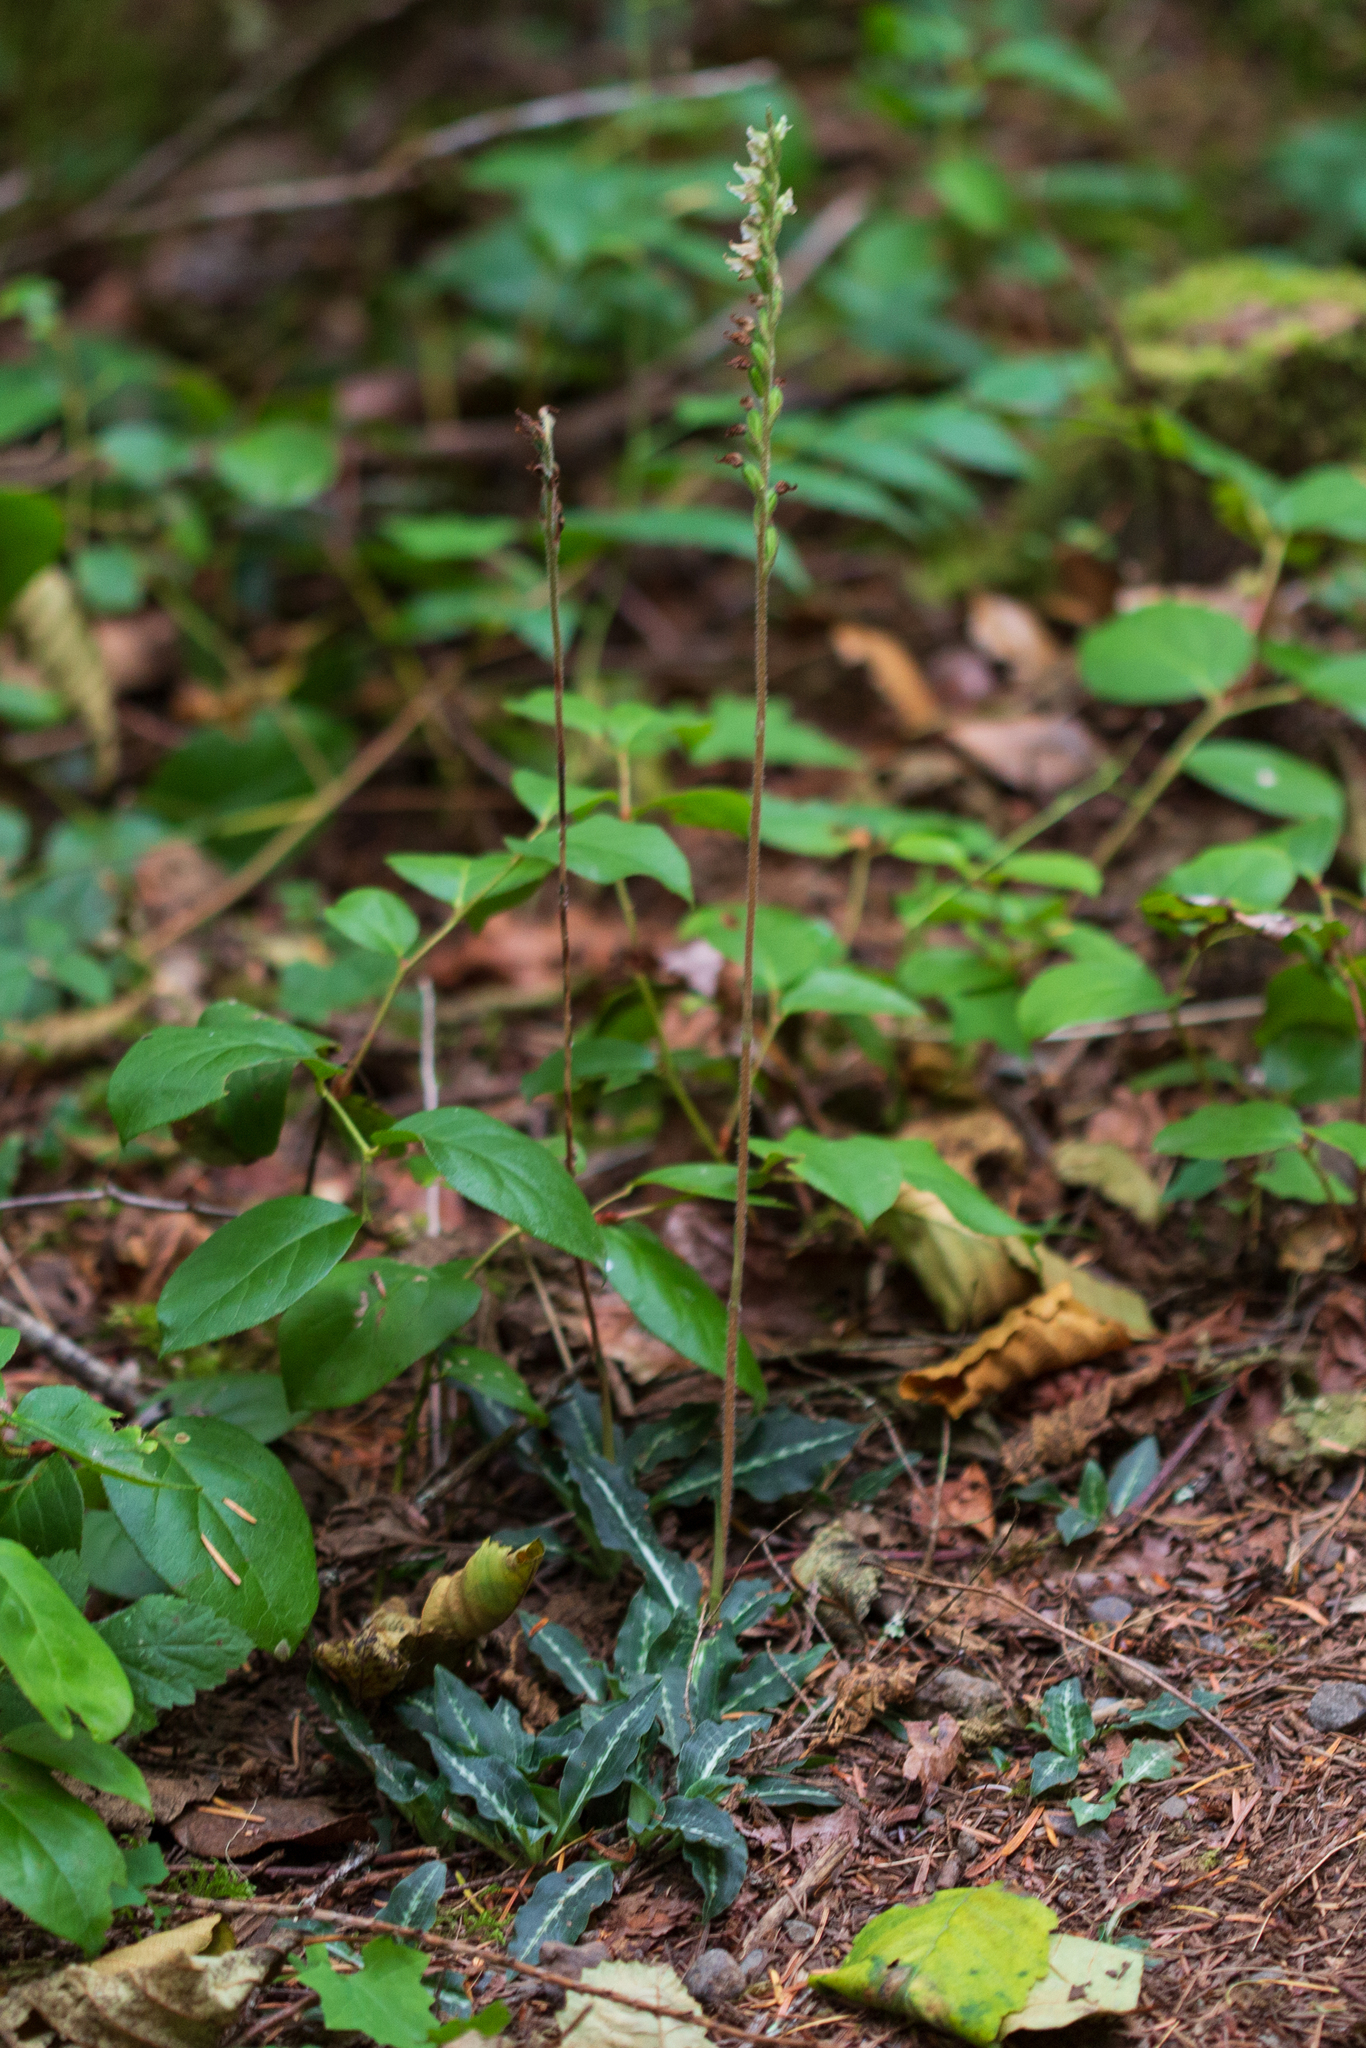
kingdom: Plantae
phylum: Tracheophyta
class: Liliopsida
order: Asparagales
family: Orchidaceae
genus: Goodyera
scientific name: Goodyera oblongifolia
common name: Giant rattlesnake-plantain
